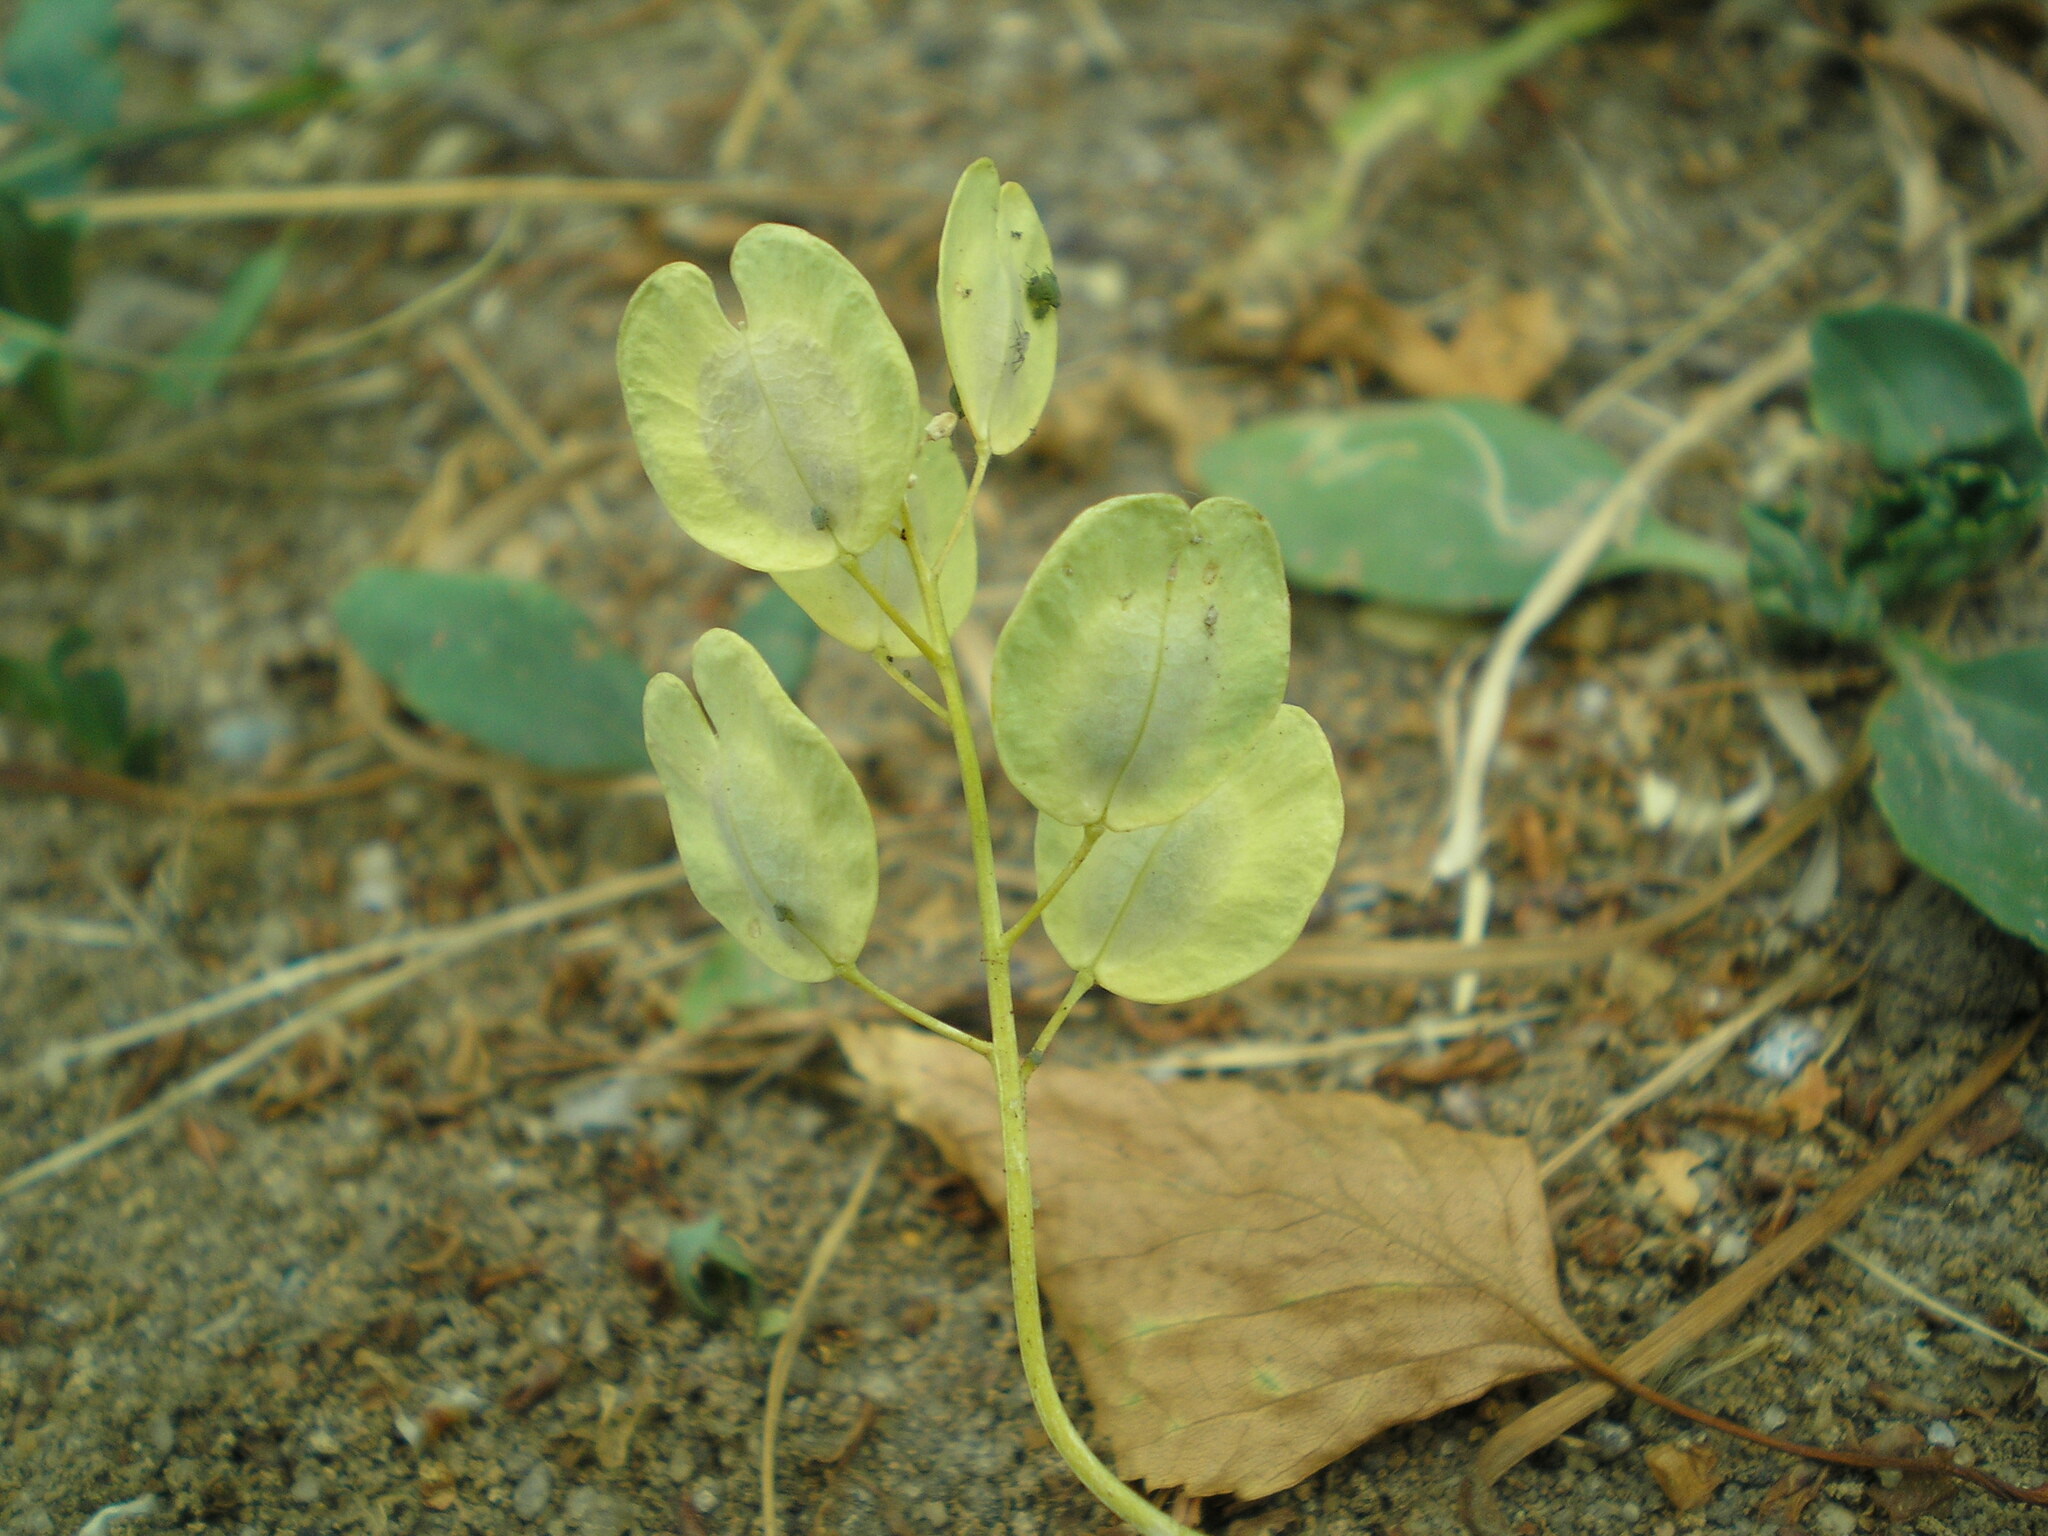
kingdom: Plantae
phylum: Tracheophyta
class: Magnoliopsida
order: Brassicales
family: Brassicaceae
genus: Thlaspi
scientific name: Thlaspi arvense
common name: Field pennycress
